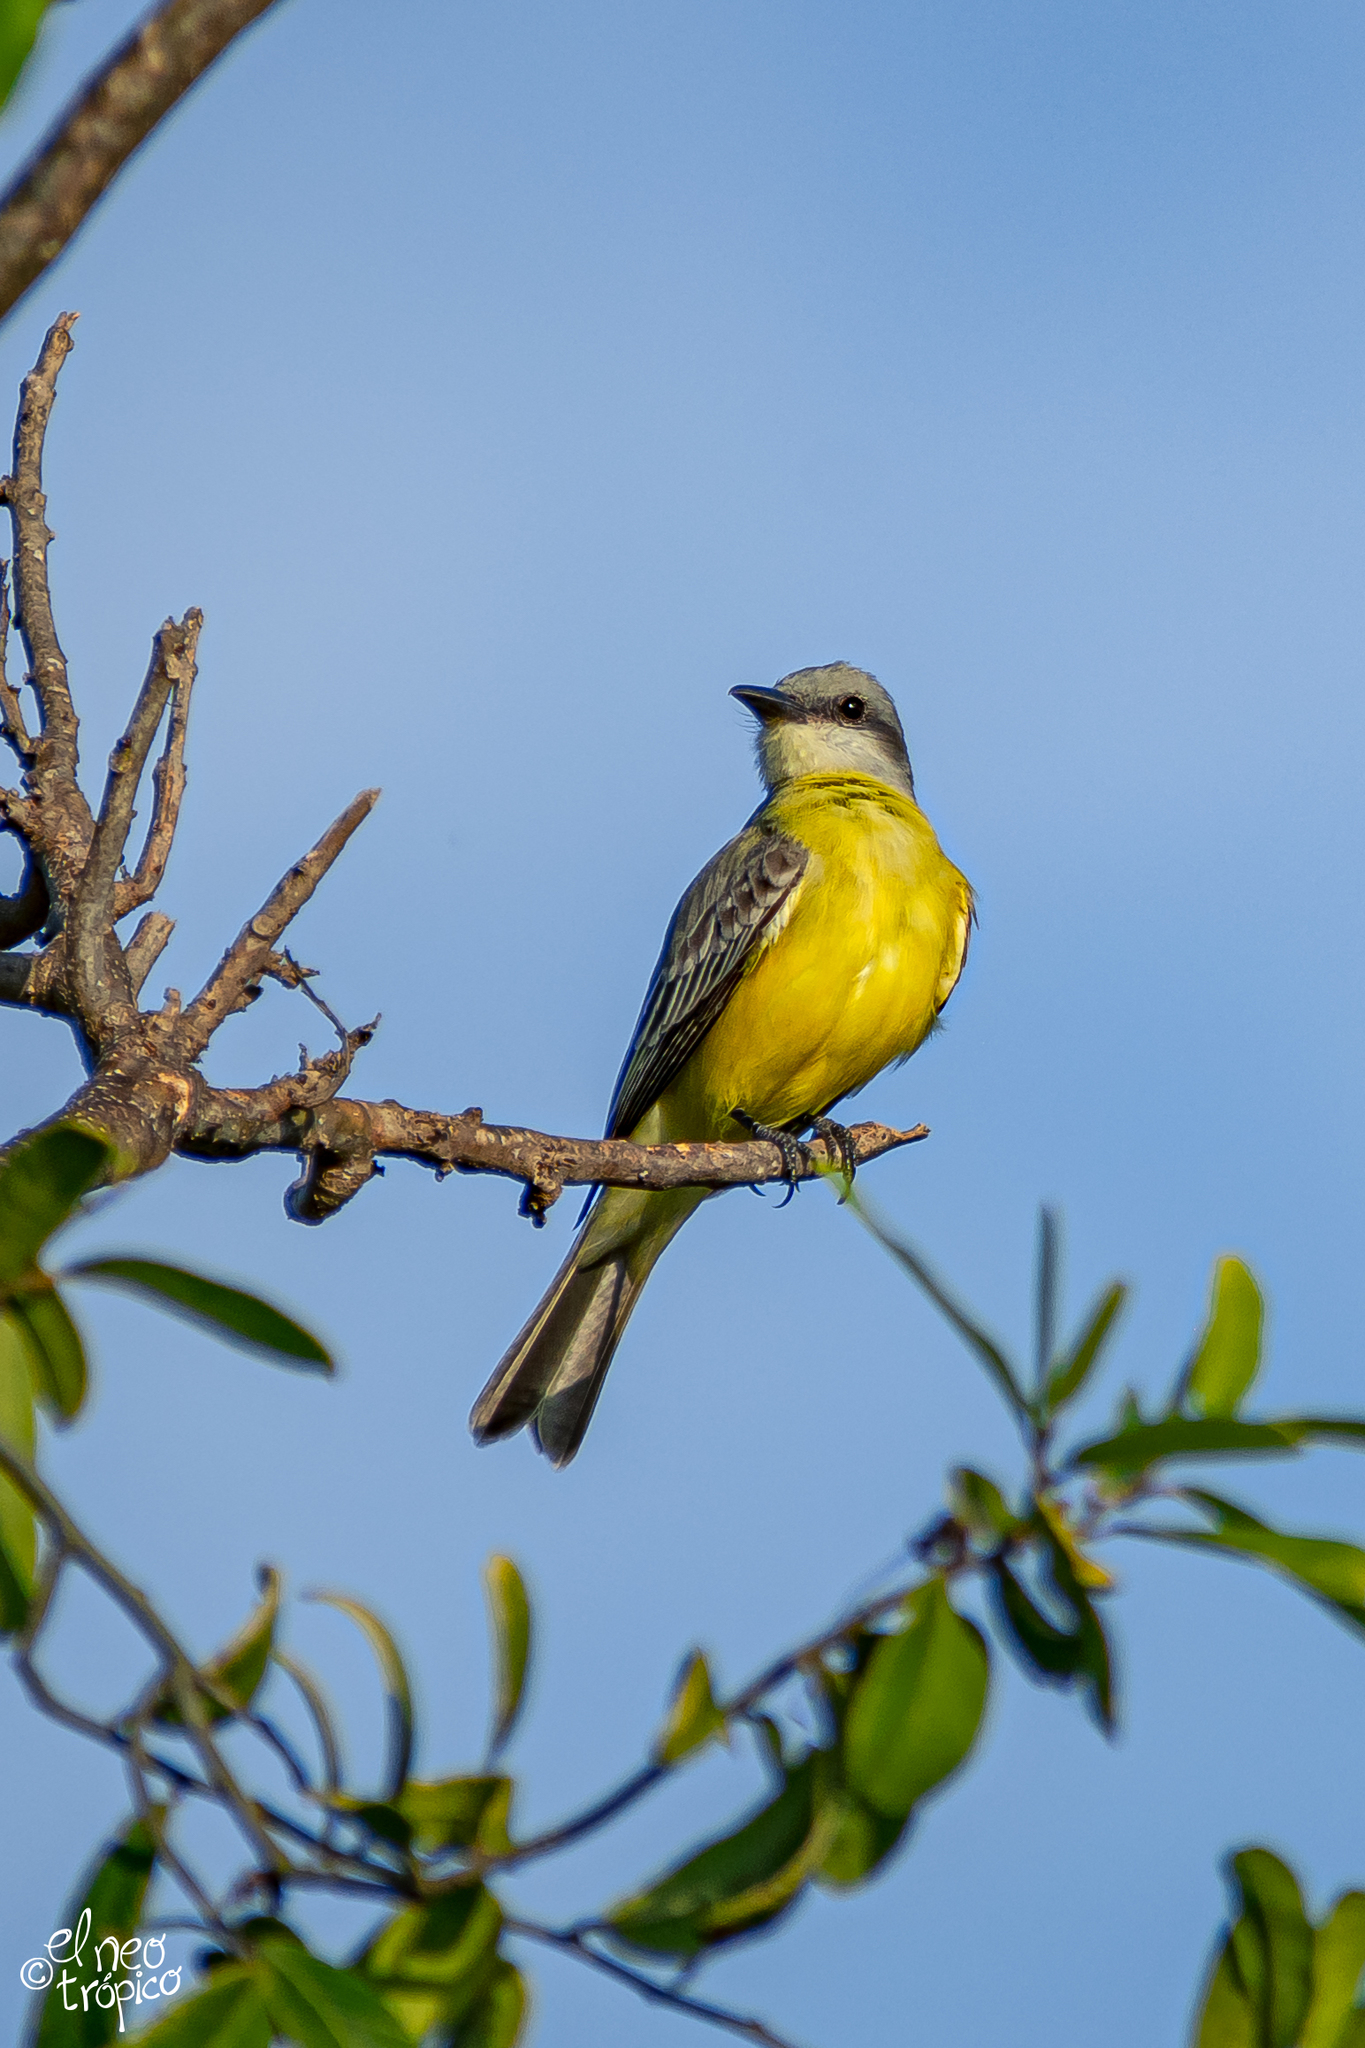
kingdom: Animalia
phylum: Chordata
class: Aves
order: Passeriformes
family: Tyrannidae
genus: Tyrannus
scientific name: Tyrannus melancholicus
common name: Tropical kingbird
